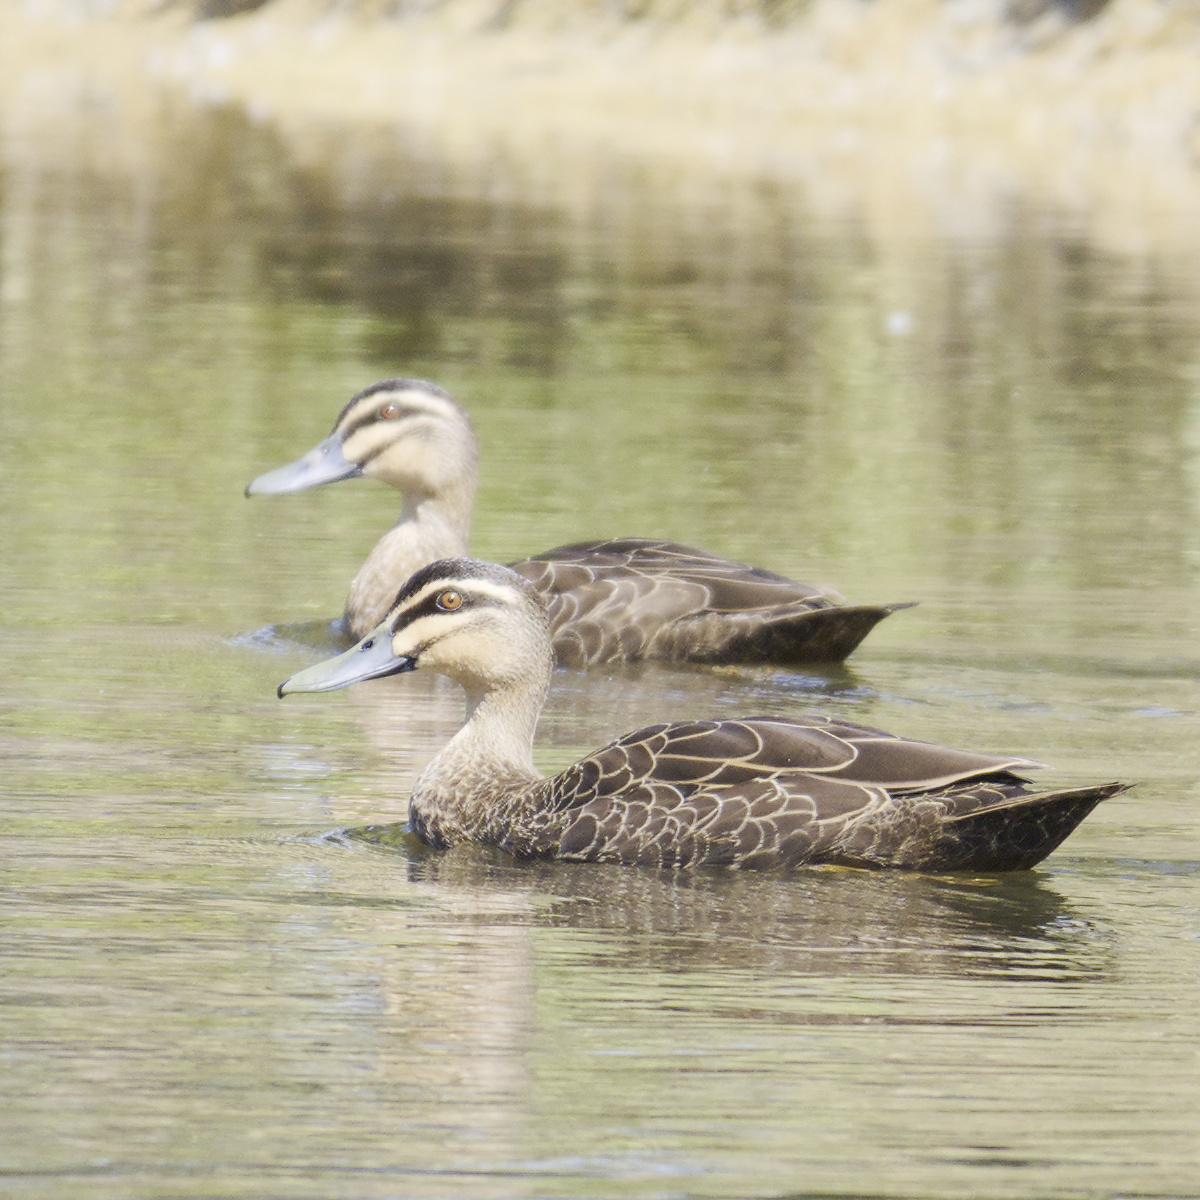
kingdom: Animalia
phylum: Chordata
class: Aves
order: Anseriformes
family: Anatidae
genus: Anas
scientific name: Anas superciliosa
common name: Pacific black duck
